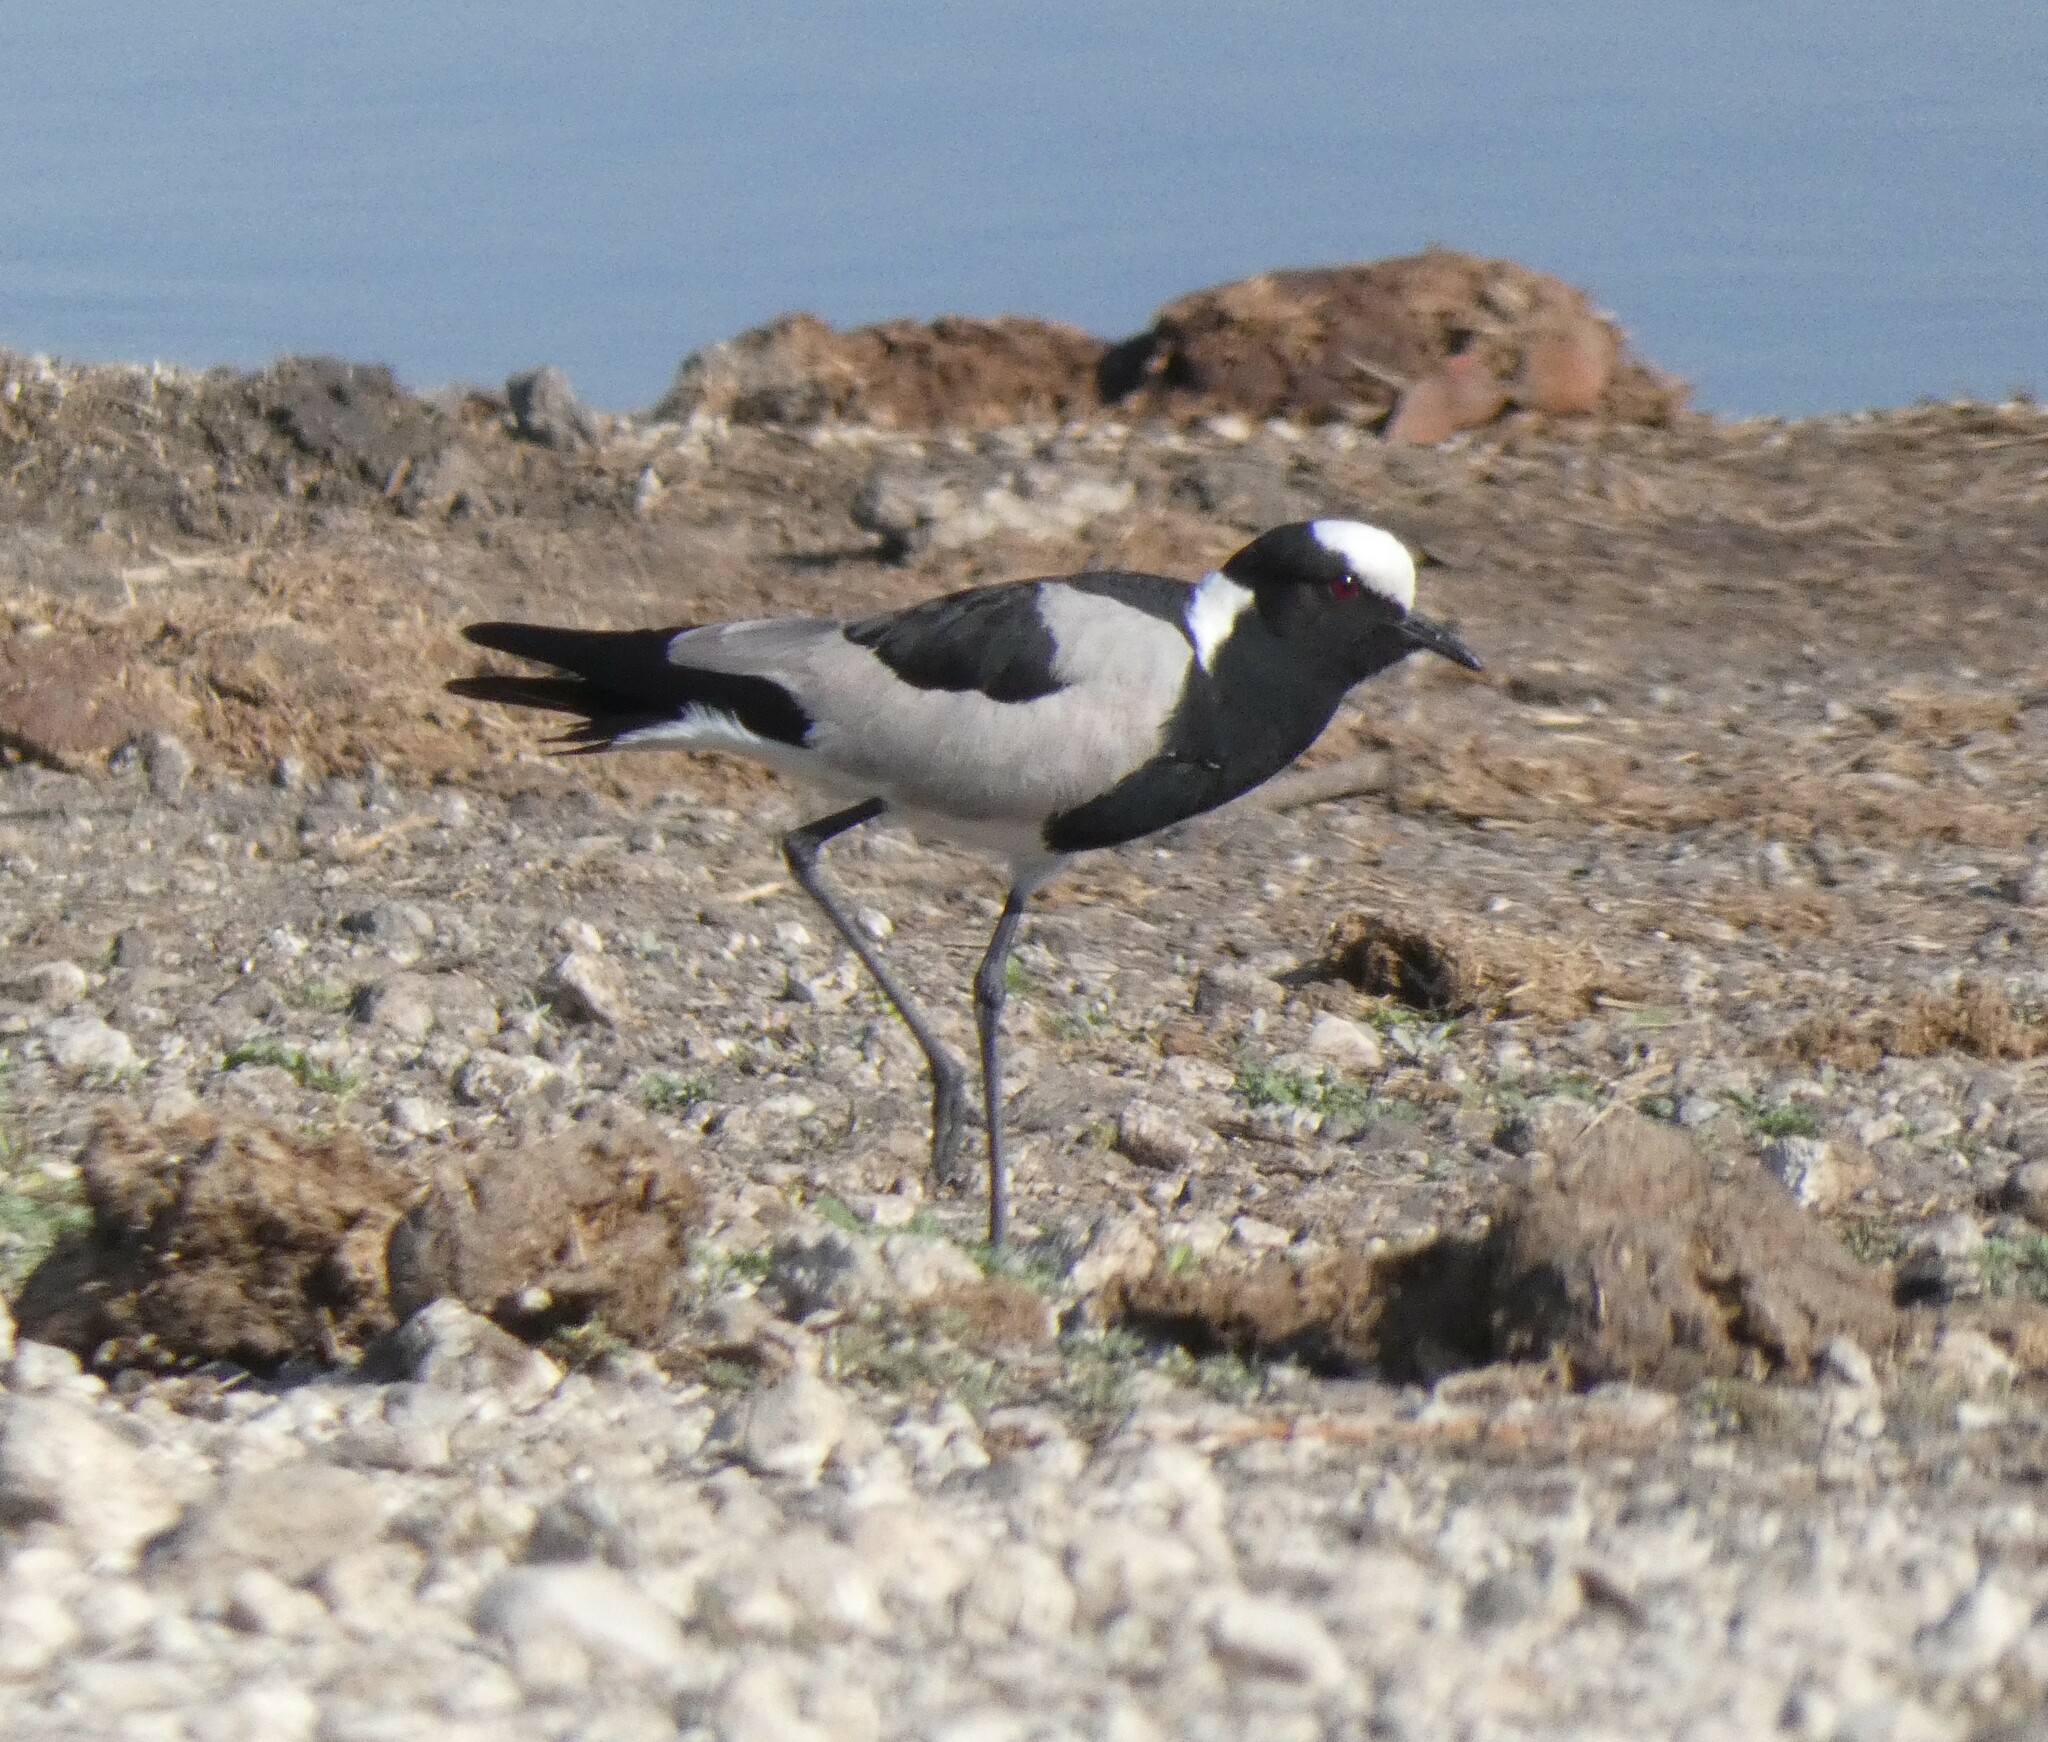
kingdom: Animalia
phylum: Chordata
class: Aves
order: Charadriiformes
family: Charadriidae
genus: Vanellus
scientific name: Vanellus armatus
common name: Blacksmith lapwing
